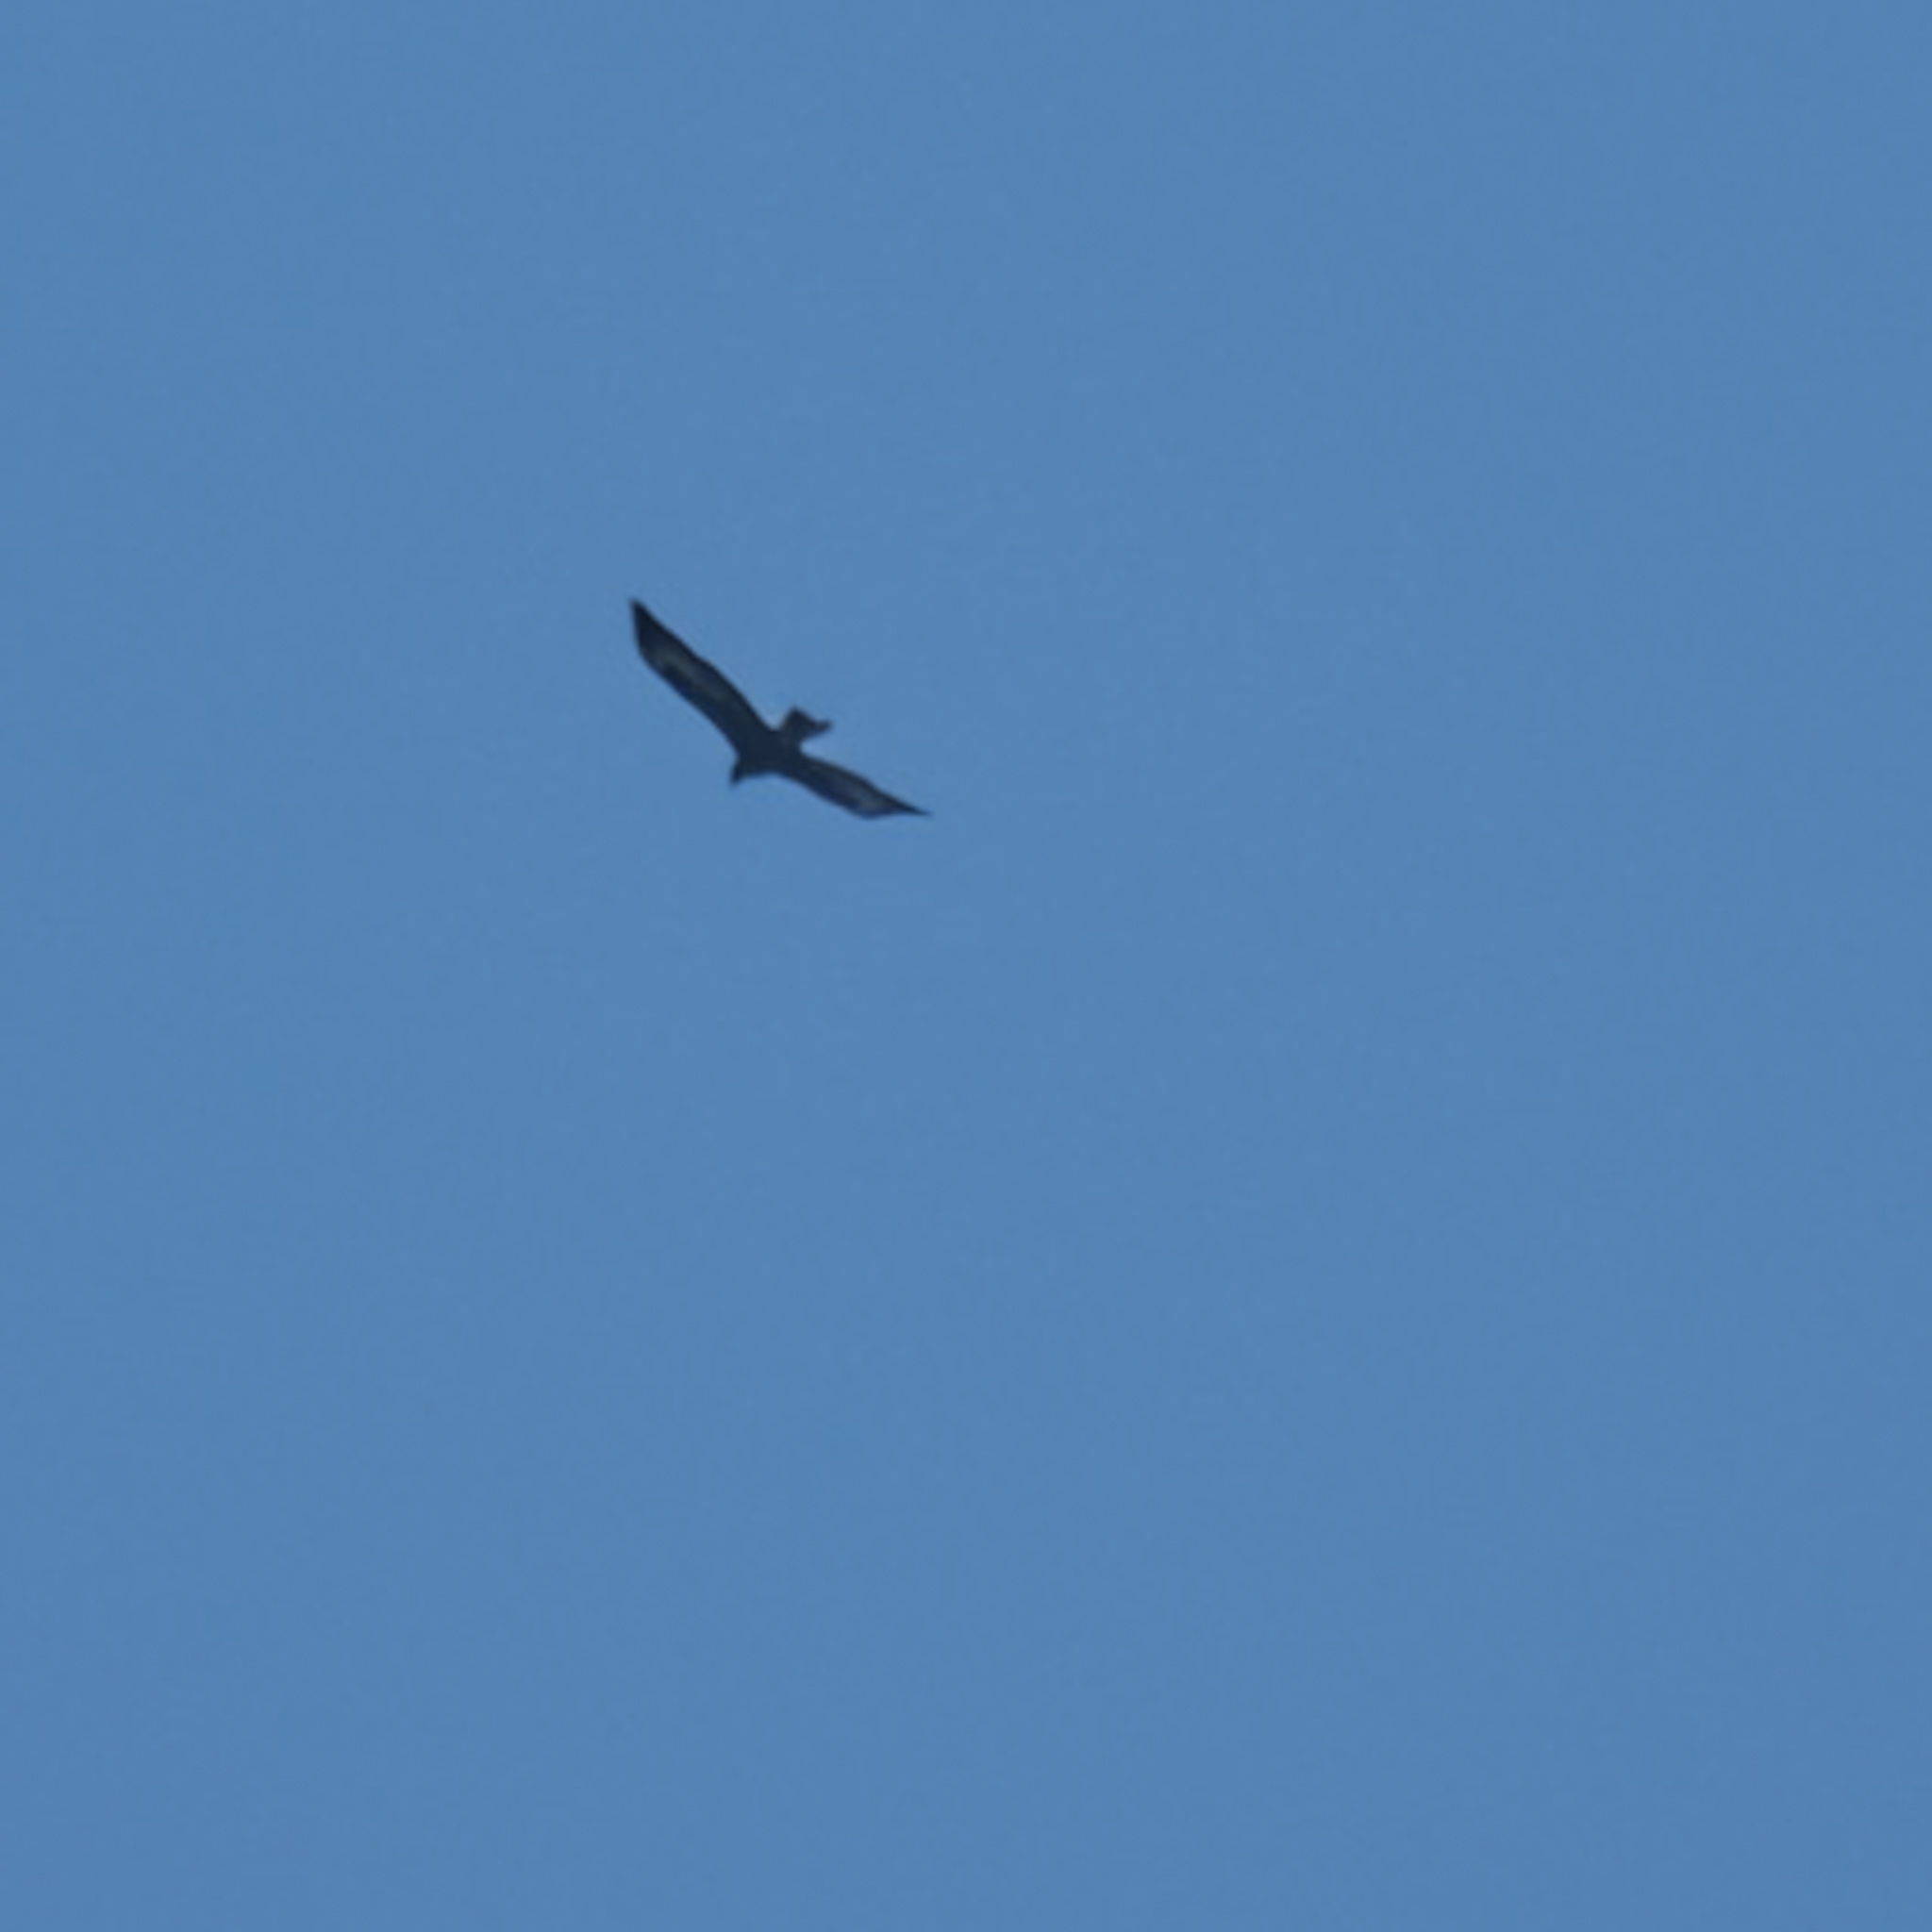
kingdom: Animalia
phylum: Chordata
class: Aves
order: Accipitriformes
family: Accipitridae
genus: Aquila
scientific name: Aquila audax
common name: Wedge-tailed eagle
